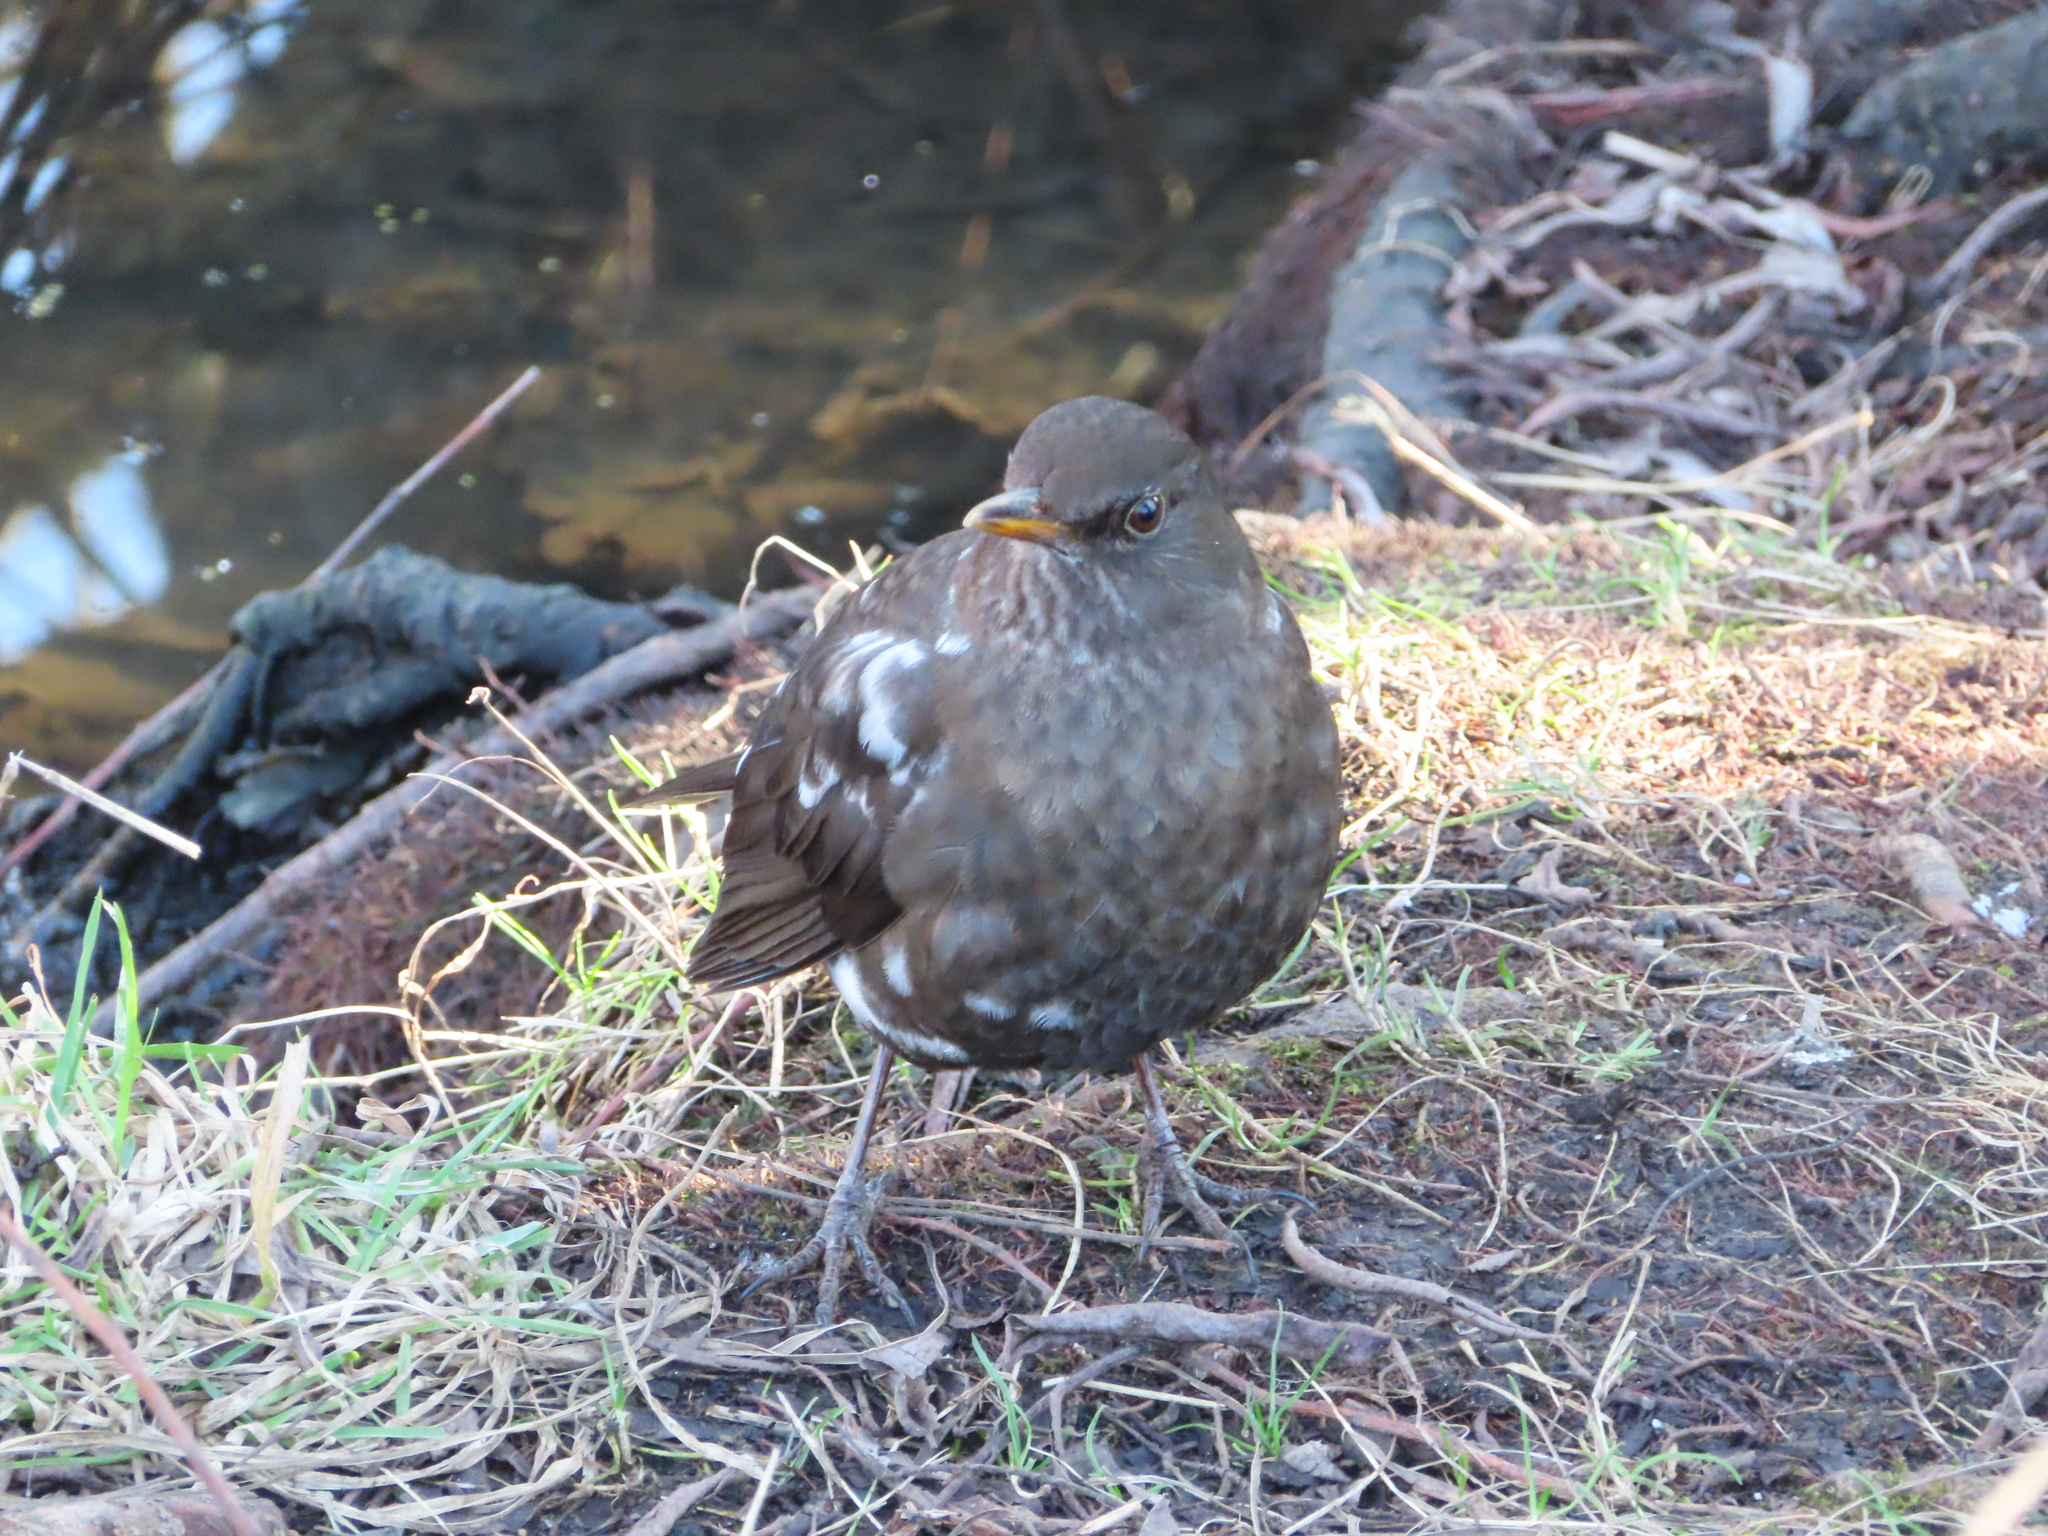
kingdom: Animalia
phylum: Chordata
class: Aves
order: Passeriformes
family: Turdidae
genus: Turdus
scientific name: Turdus merula
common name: Common blackbird
